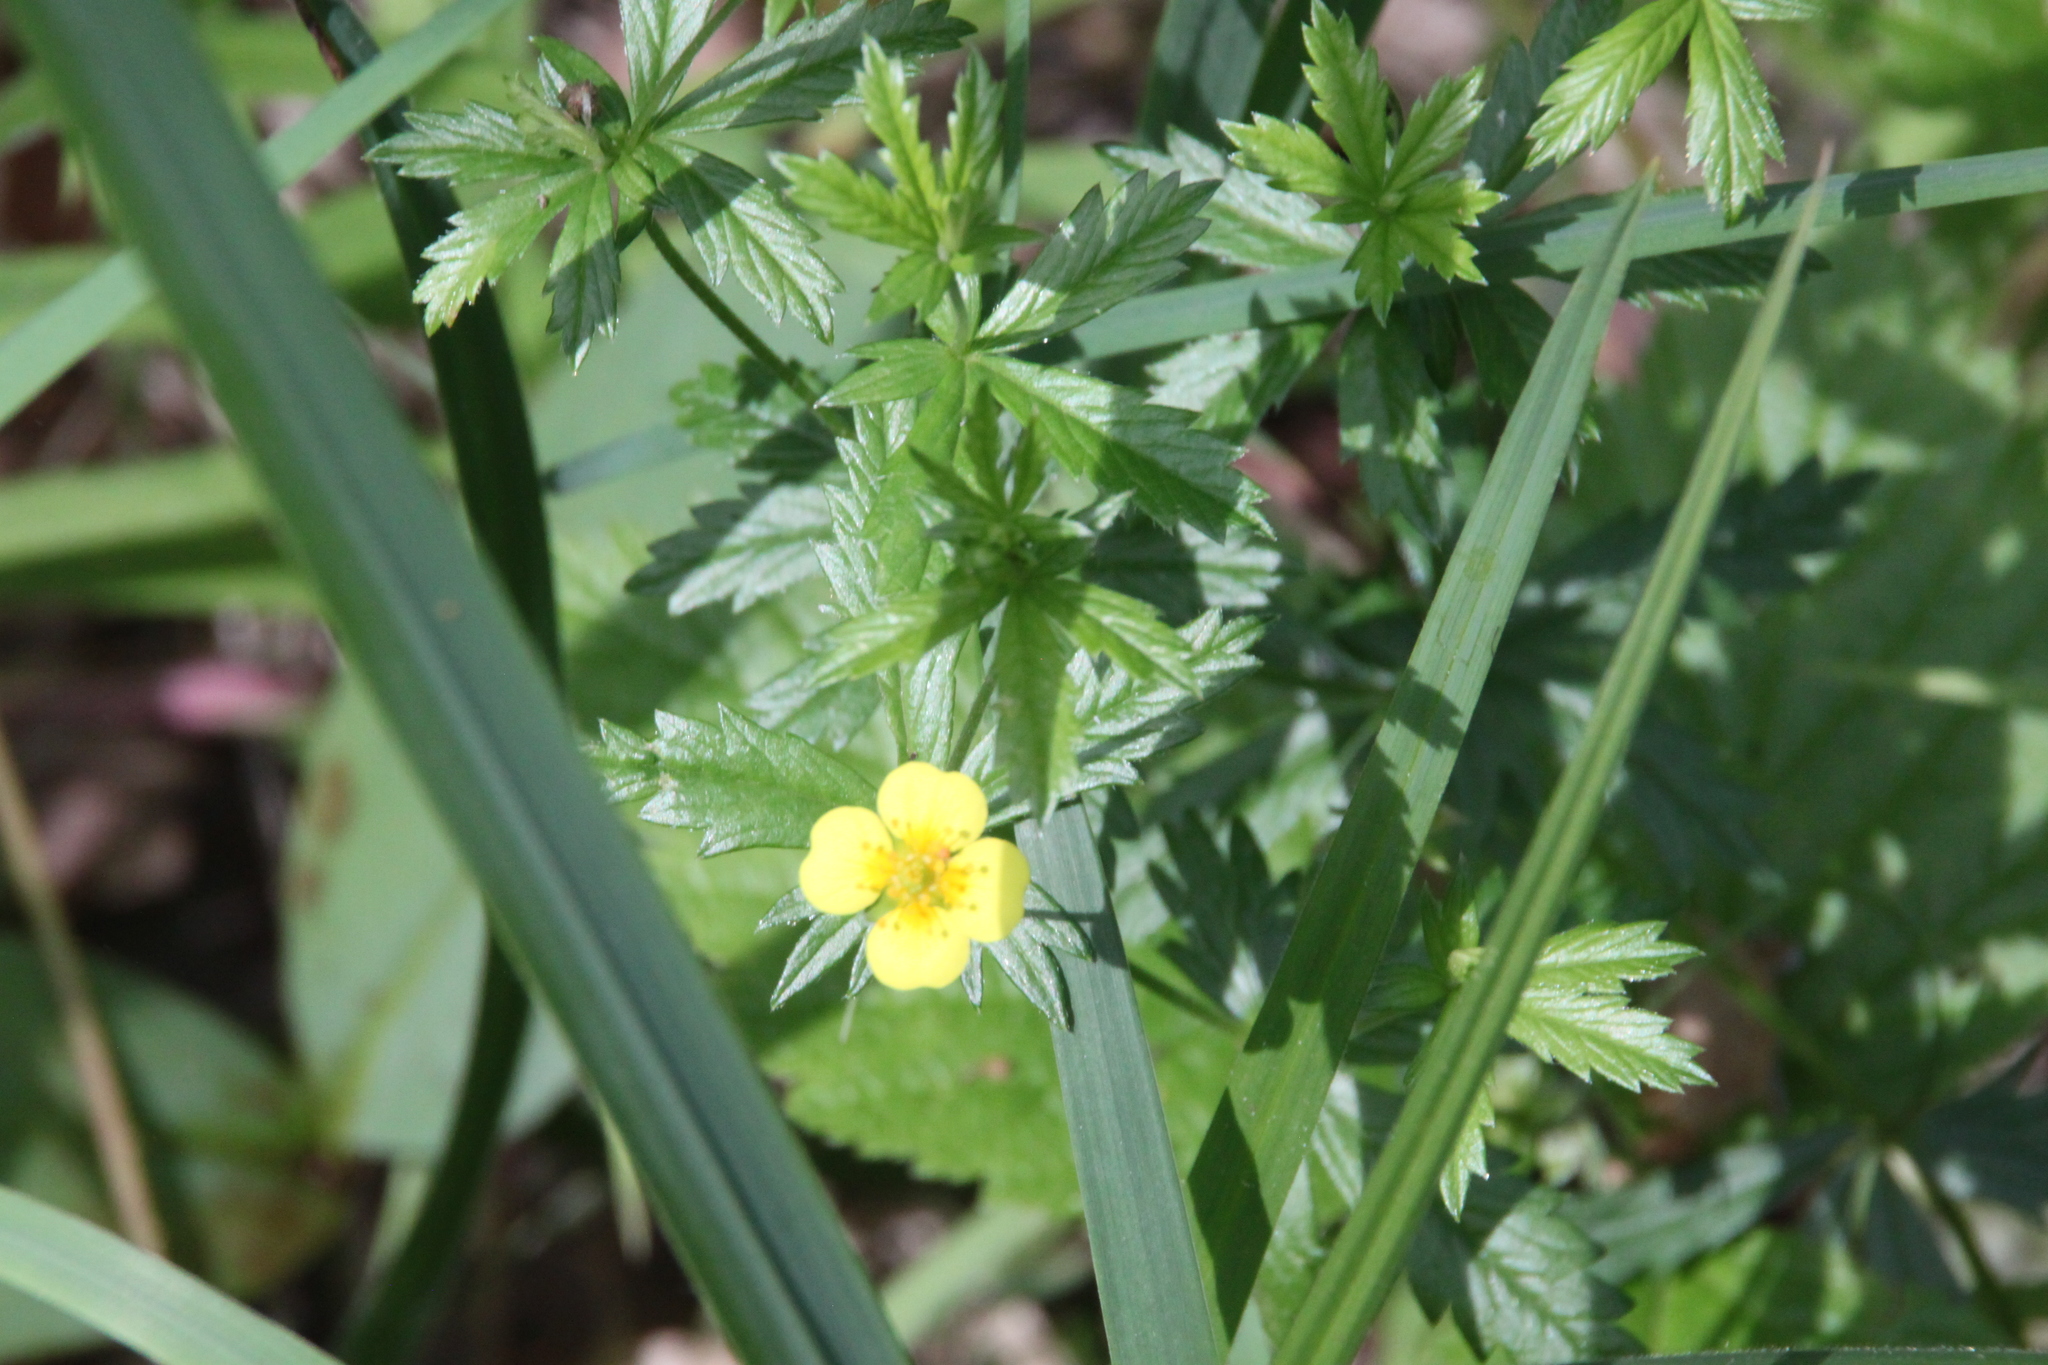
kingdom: Plantae
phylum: Tracheophyta
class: Magnoliopsida
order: Rosales
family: Rosaceae
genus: Potentilla
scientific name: Potentilla erecta
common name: Tormentil
